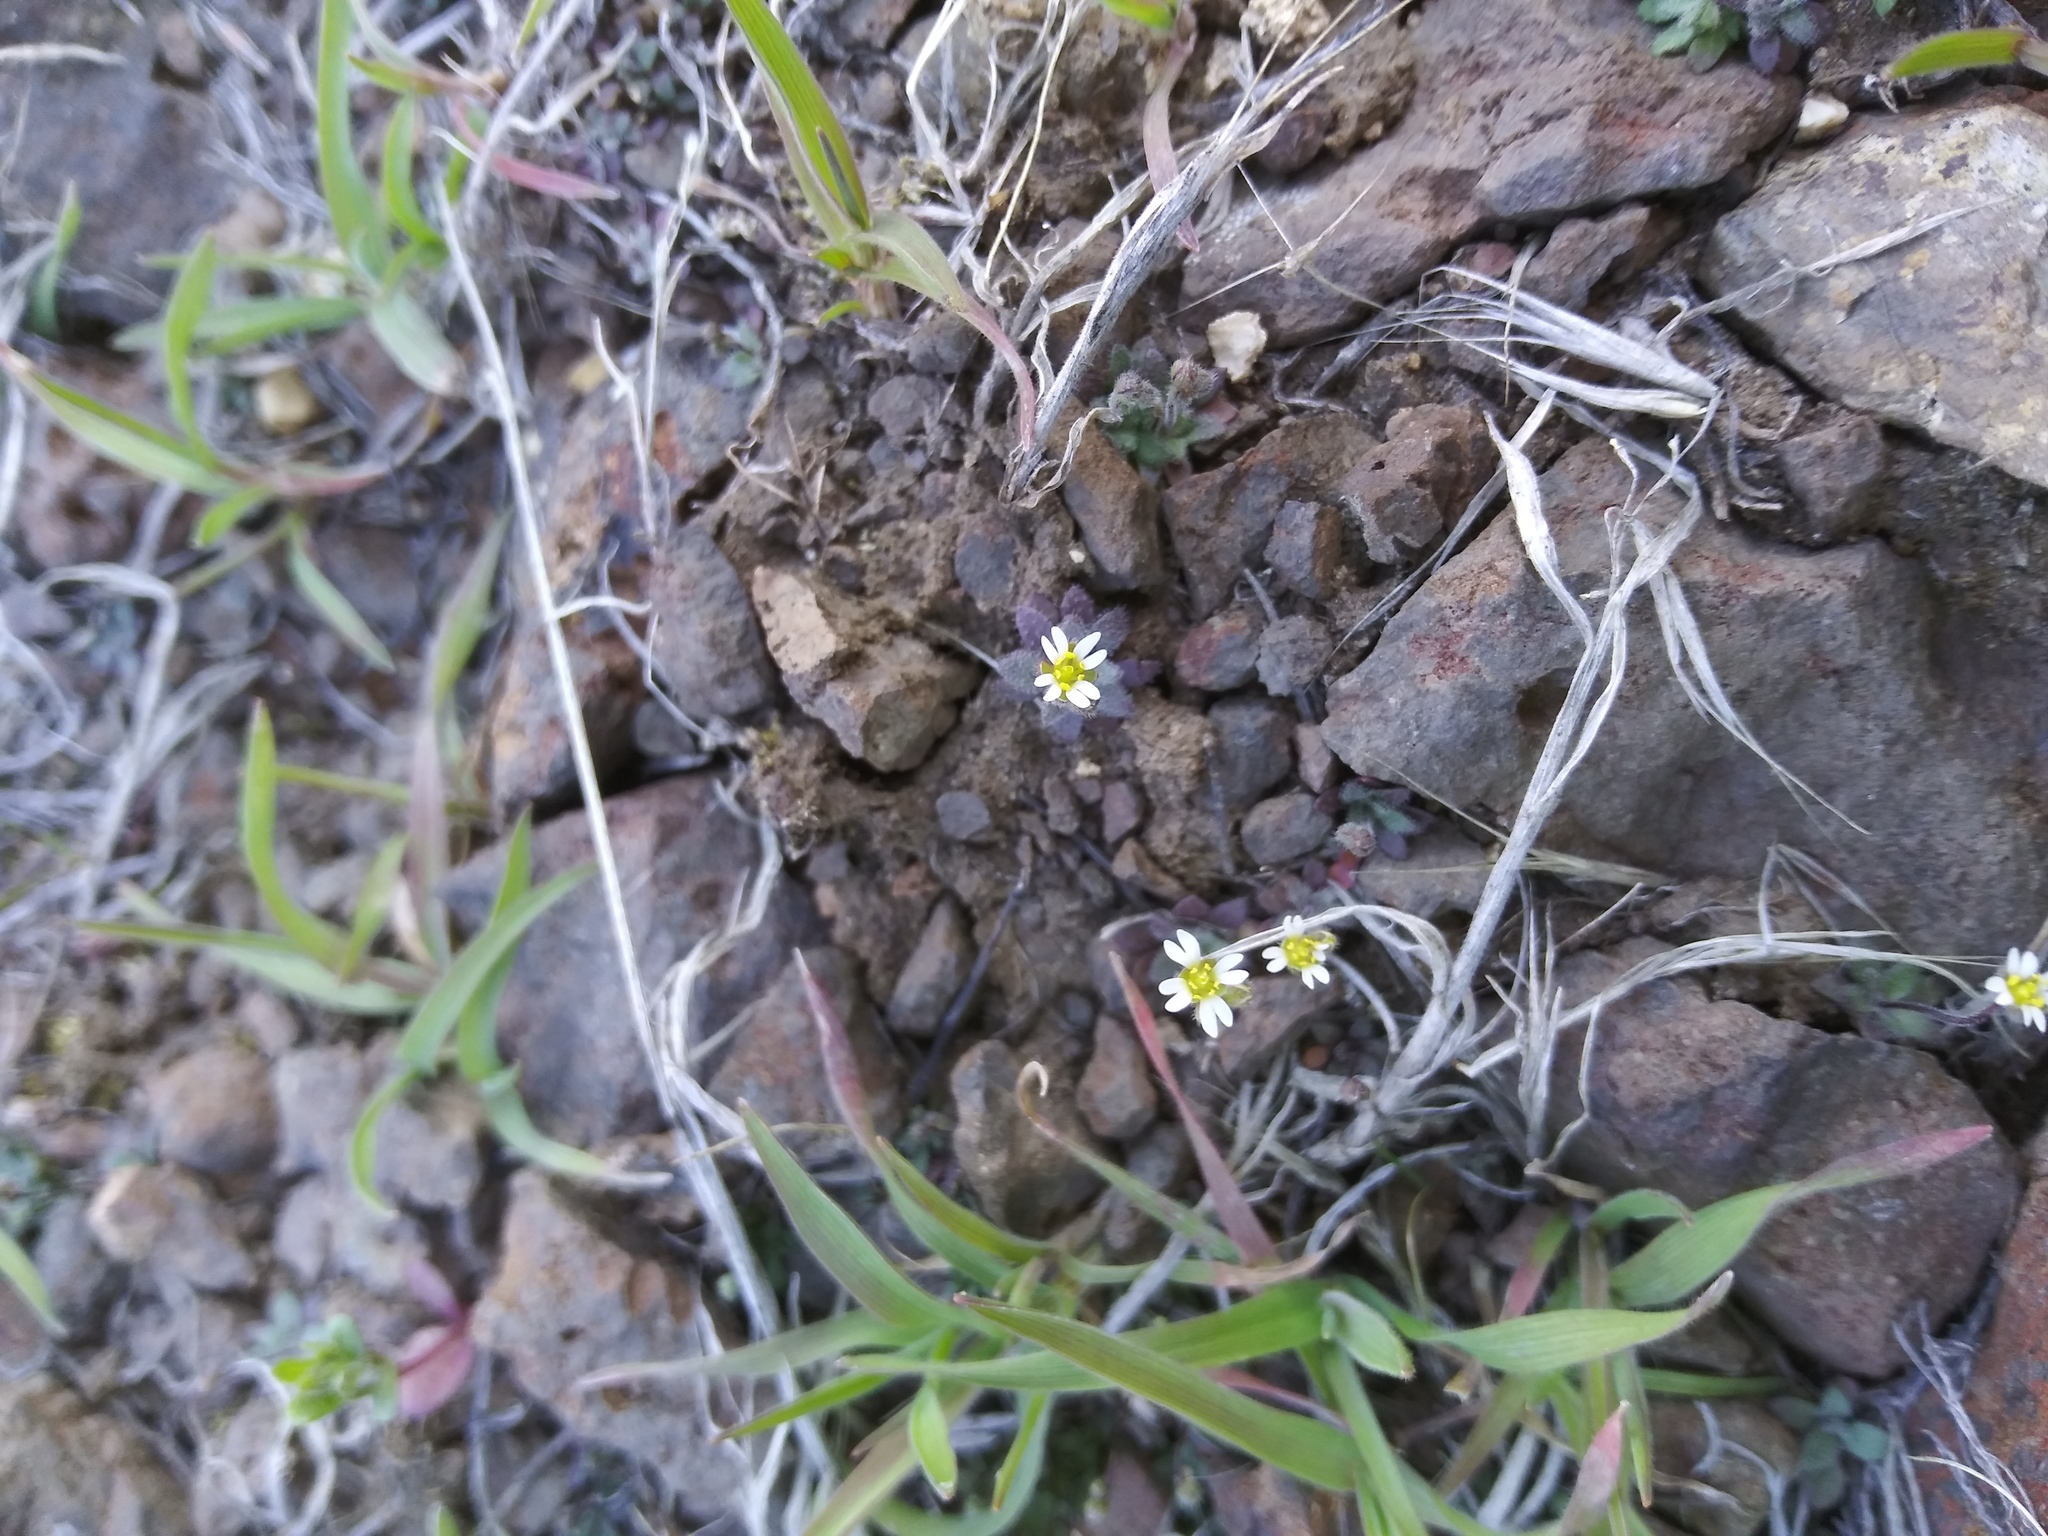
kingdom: Plantae
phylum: Tracheophyta
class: Magnoliopsida
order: Brassicales
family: Brassicaceae
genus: Draba
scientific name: Draba verna
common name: Spring draba
